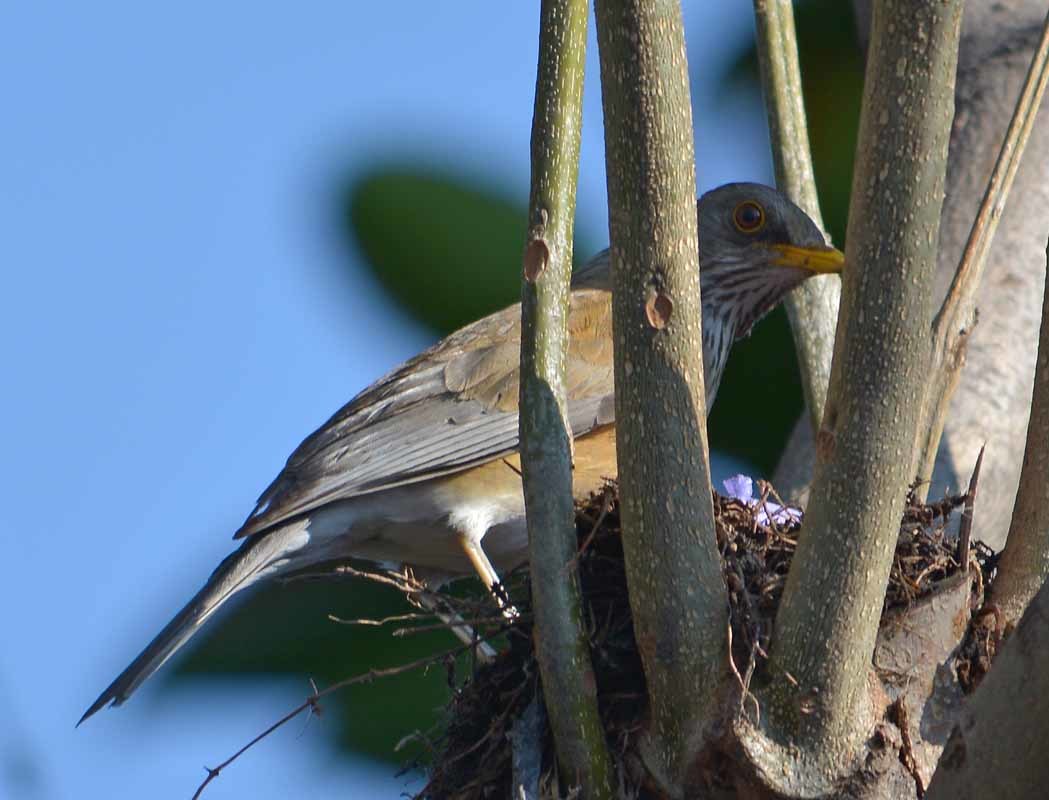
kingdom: Animalia
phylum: Chordata
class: Aves
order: Passeriformes
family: Turdidae
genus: Turdus
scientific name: Turdus rufopalliatus
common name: Rufous-backed robin
